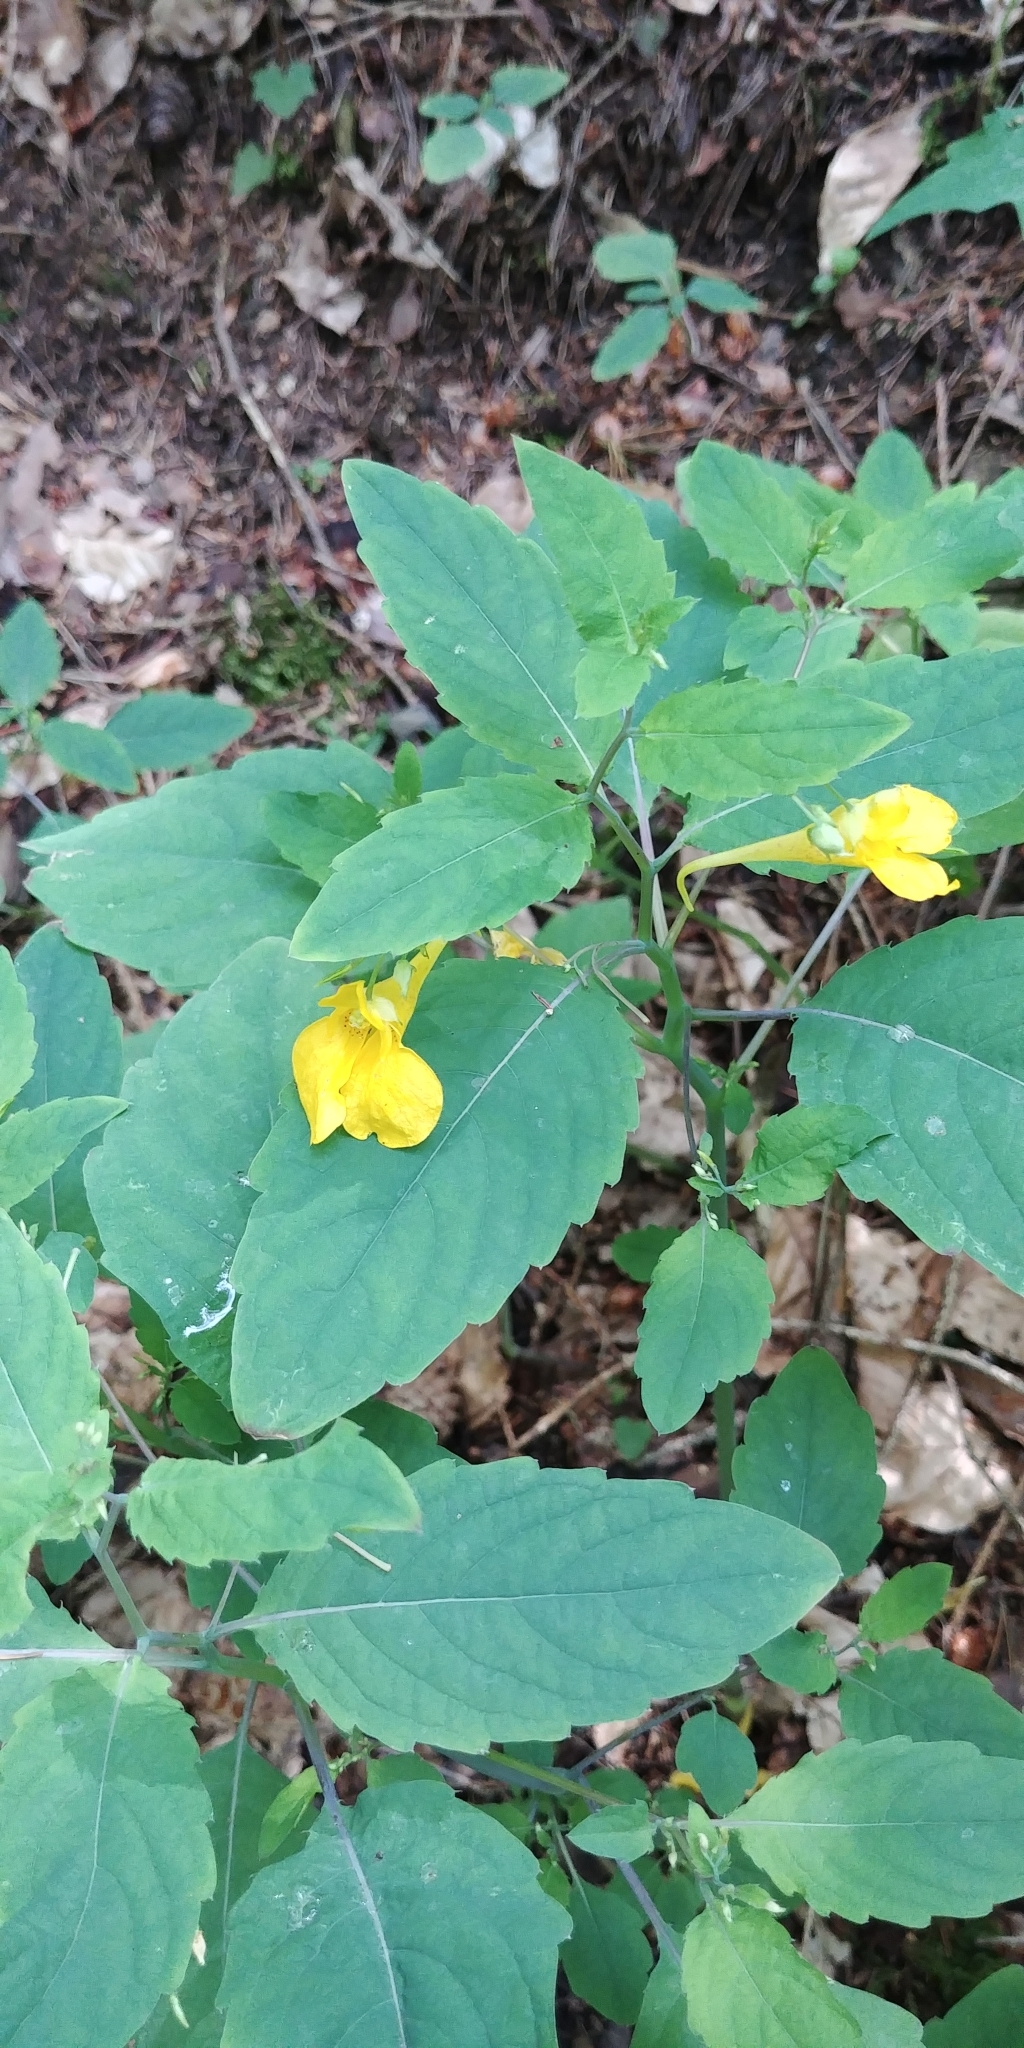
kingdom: Plantae
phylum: Tracheophyta
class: Magnoliopsida
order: Ericales
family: Balsaminaceae
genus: Impatiens
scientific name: Impatiens noli-tangere
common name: Touch-me-not balsam
